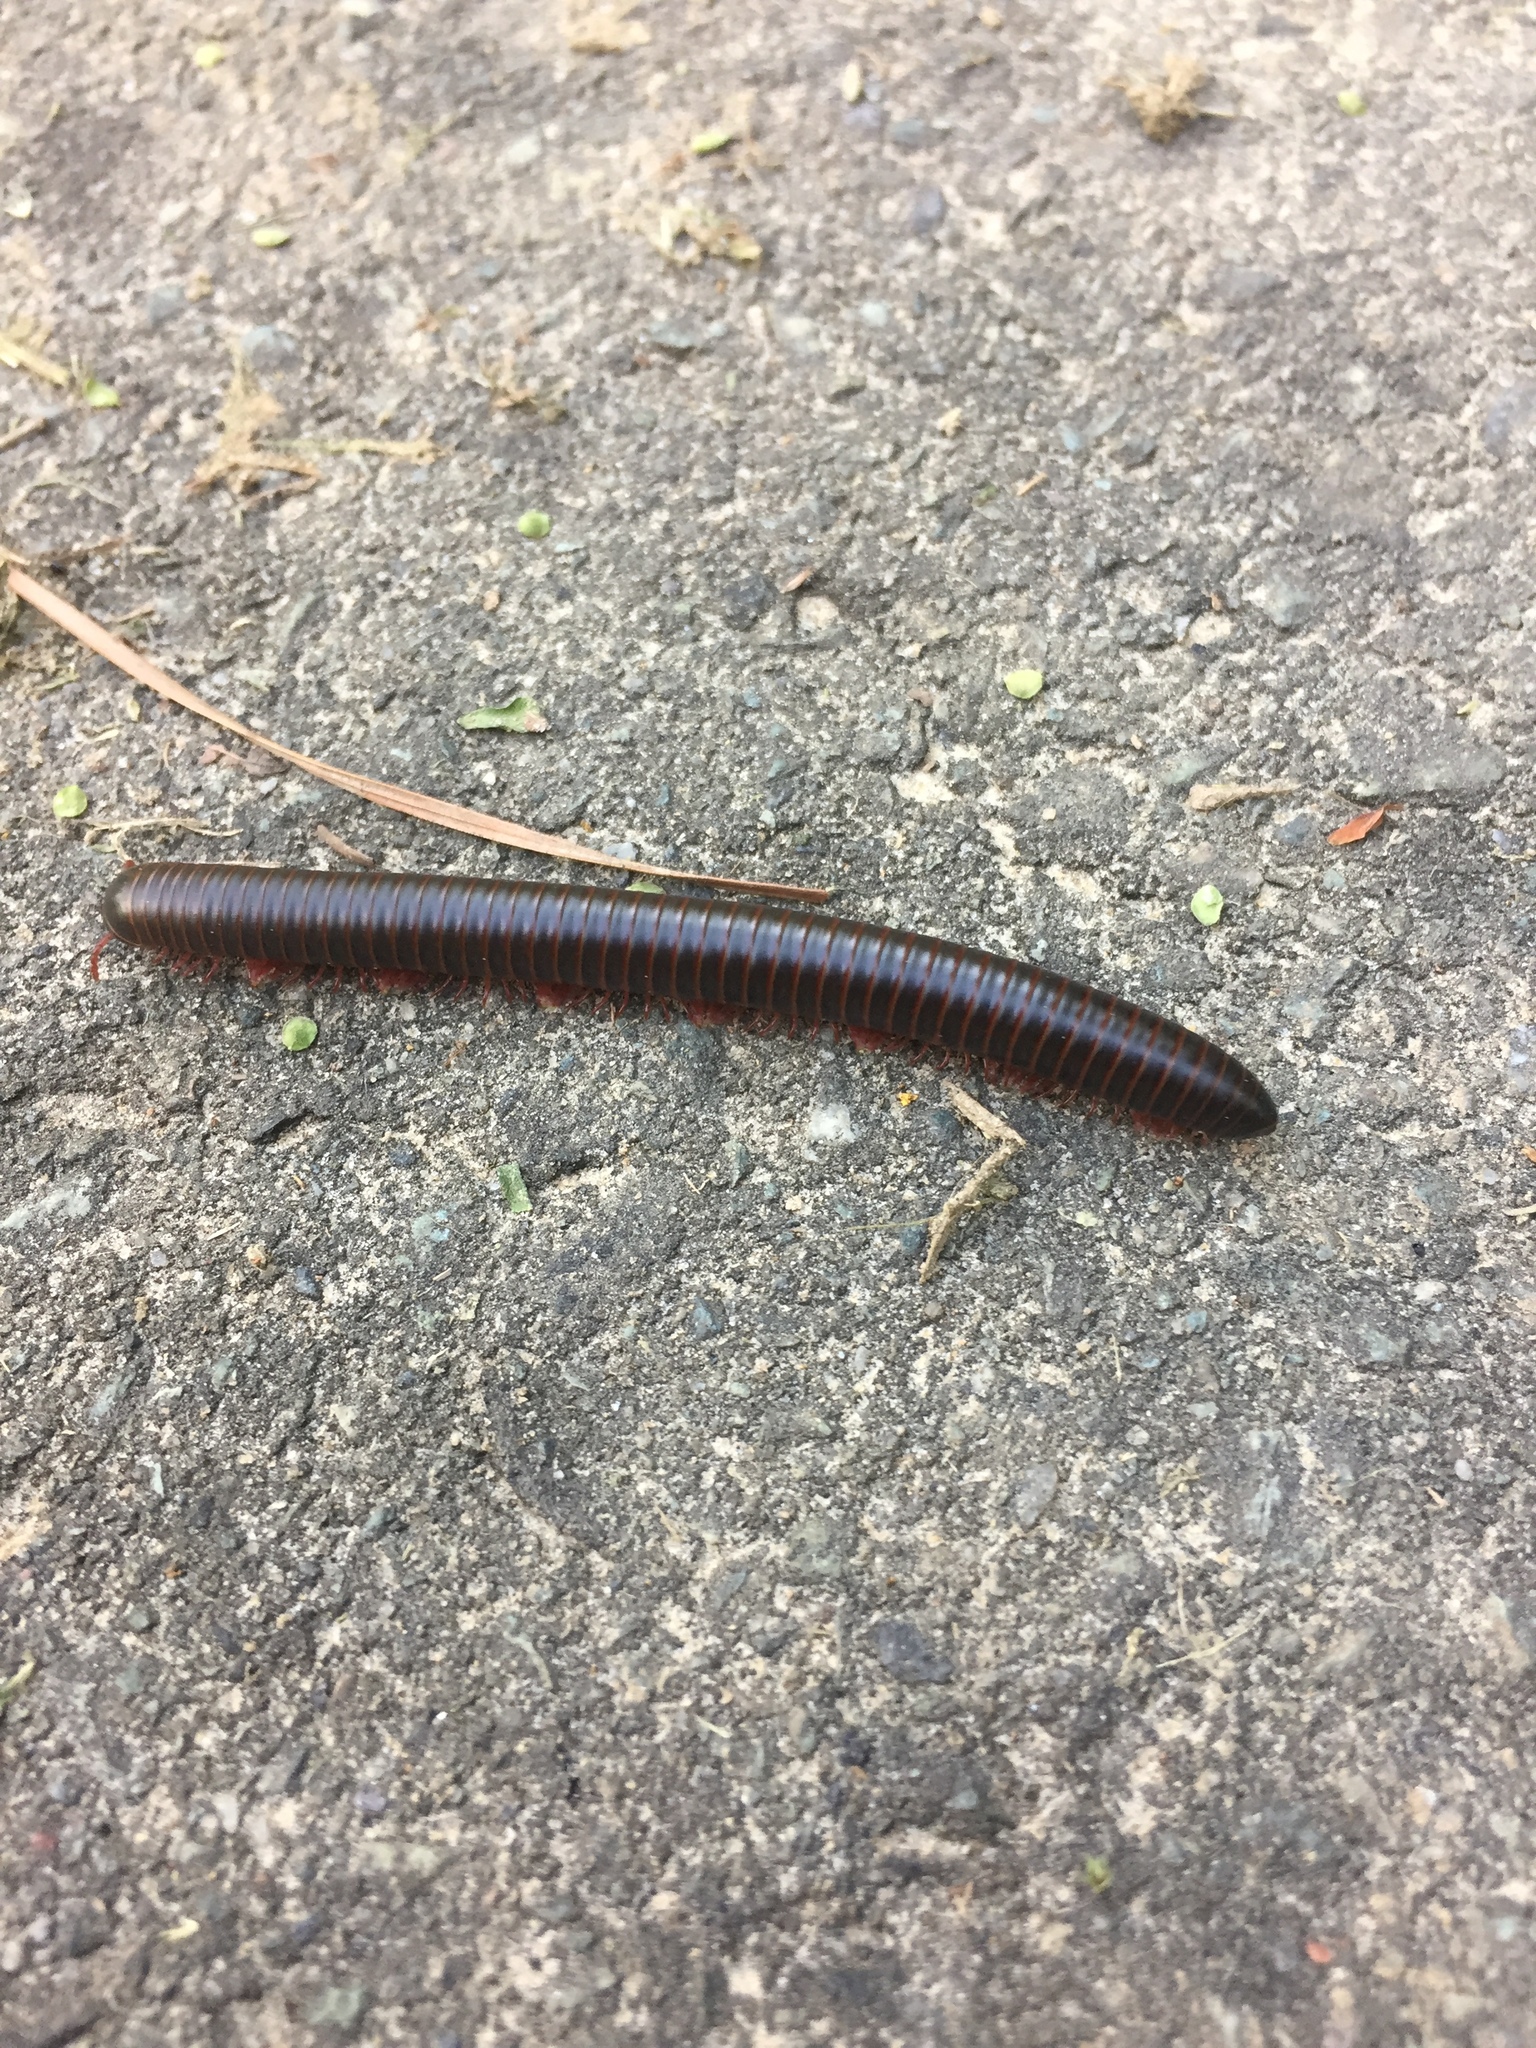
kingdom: Animalia
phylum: Arthropoda
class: Diplopoda
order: Spirobolida
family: Spirobolidae
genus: Narceus
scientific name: Narceus
